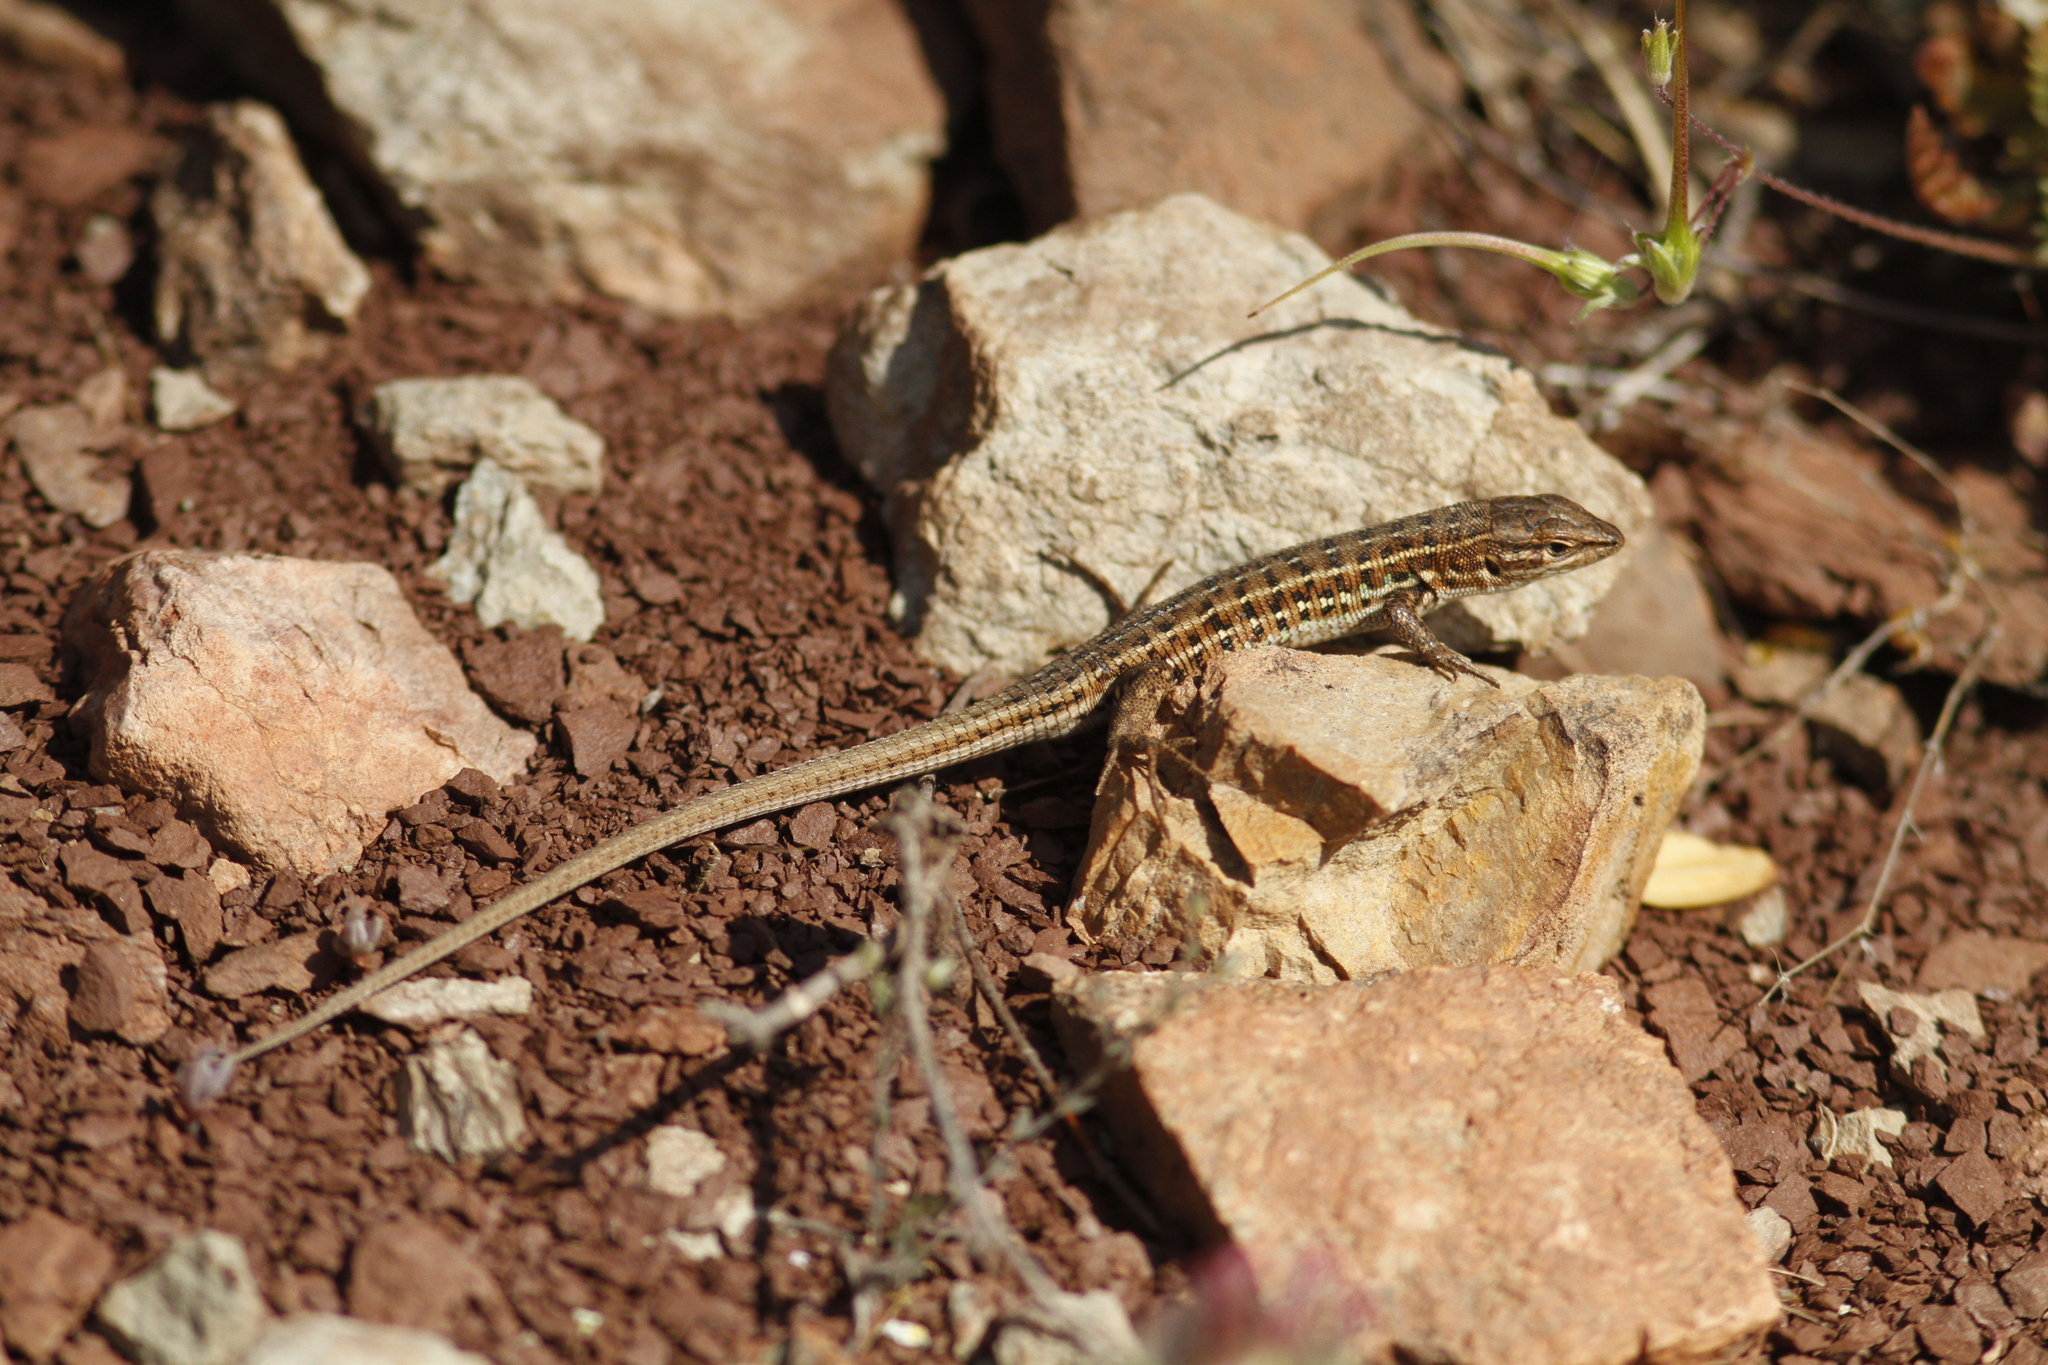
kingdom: Animalia
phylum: Chordata
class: Squamata
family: Lacertidae
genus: Psammodromus
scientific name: Psammodromus edwarsianus
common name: East iberian psammodromus
